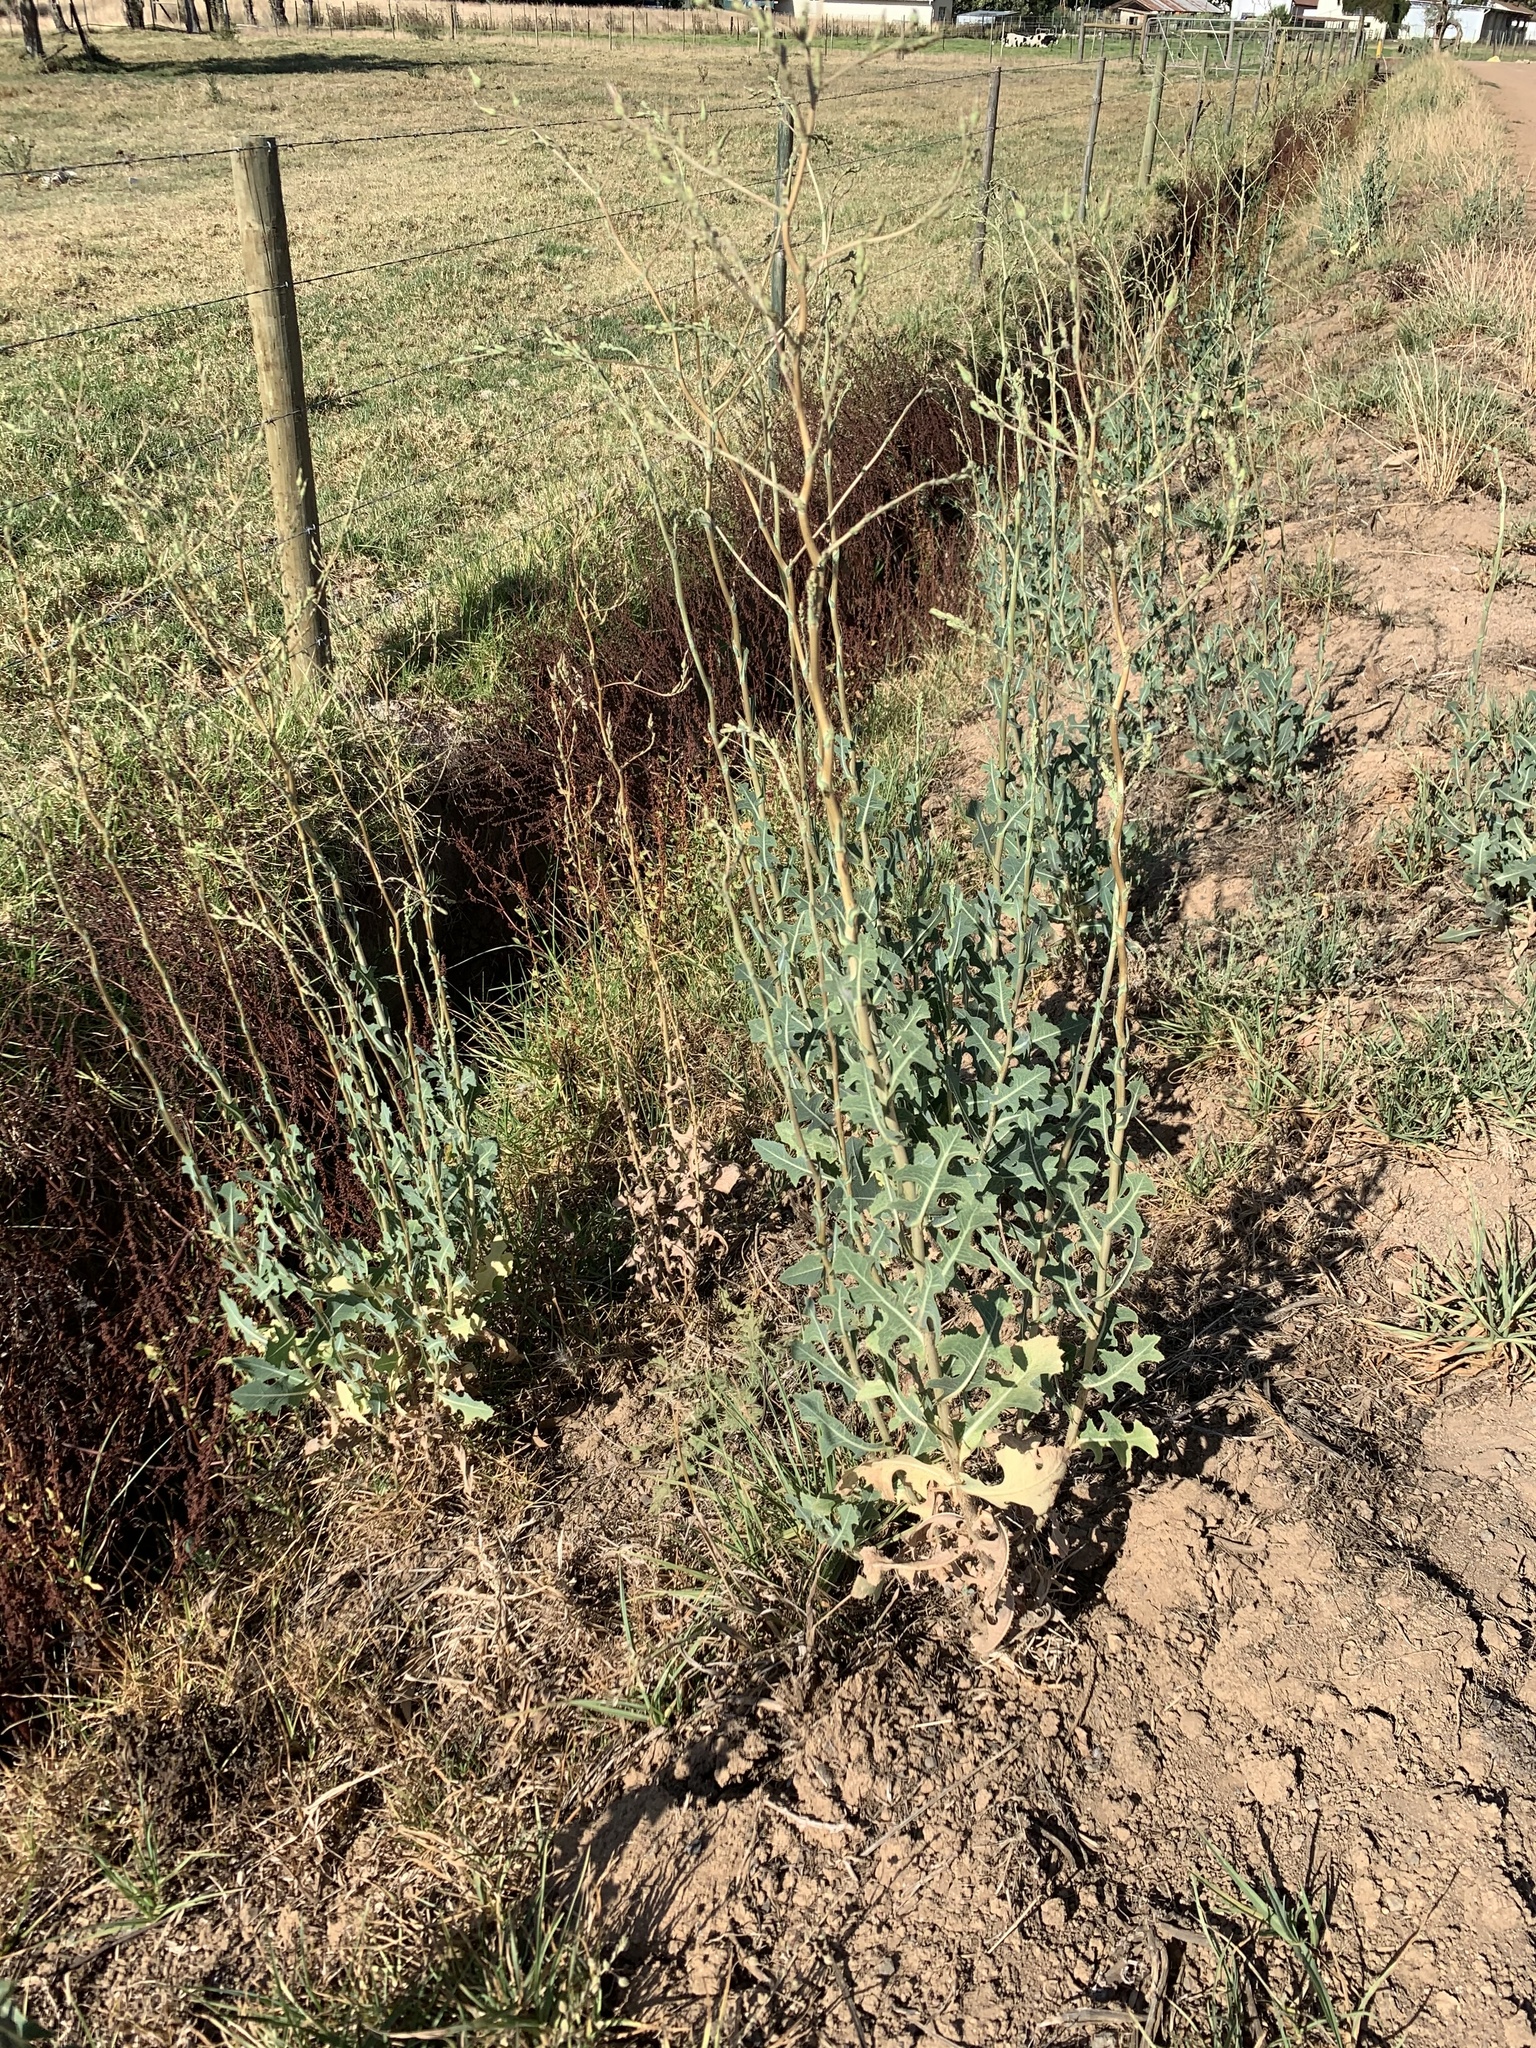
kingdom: Plantae
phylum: Tracheophyta
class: Magnoliopsida
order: Asterales
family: Asteraceae
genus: Lactuca
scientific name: Lactuca serriola
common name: Prickly lettuce
